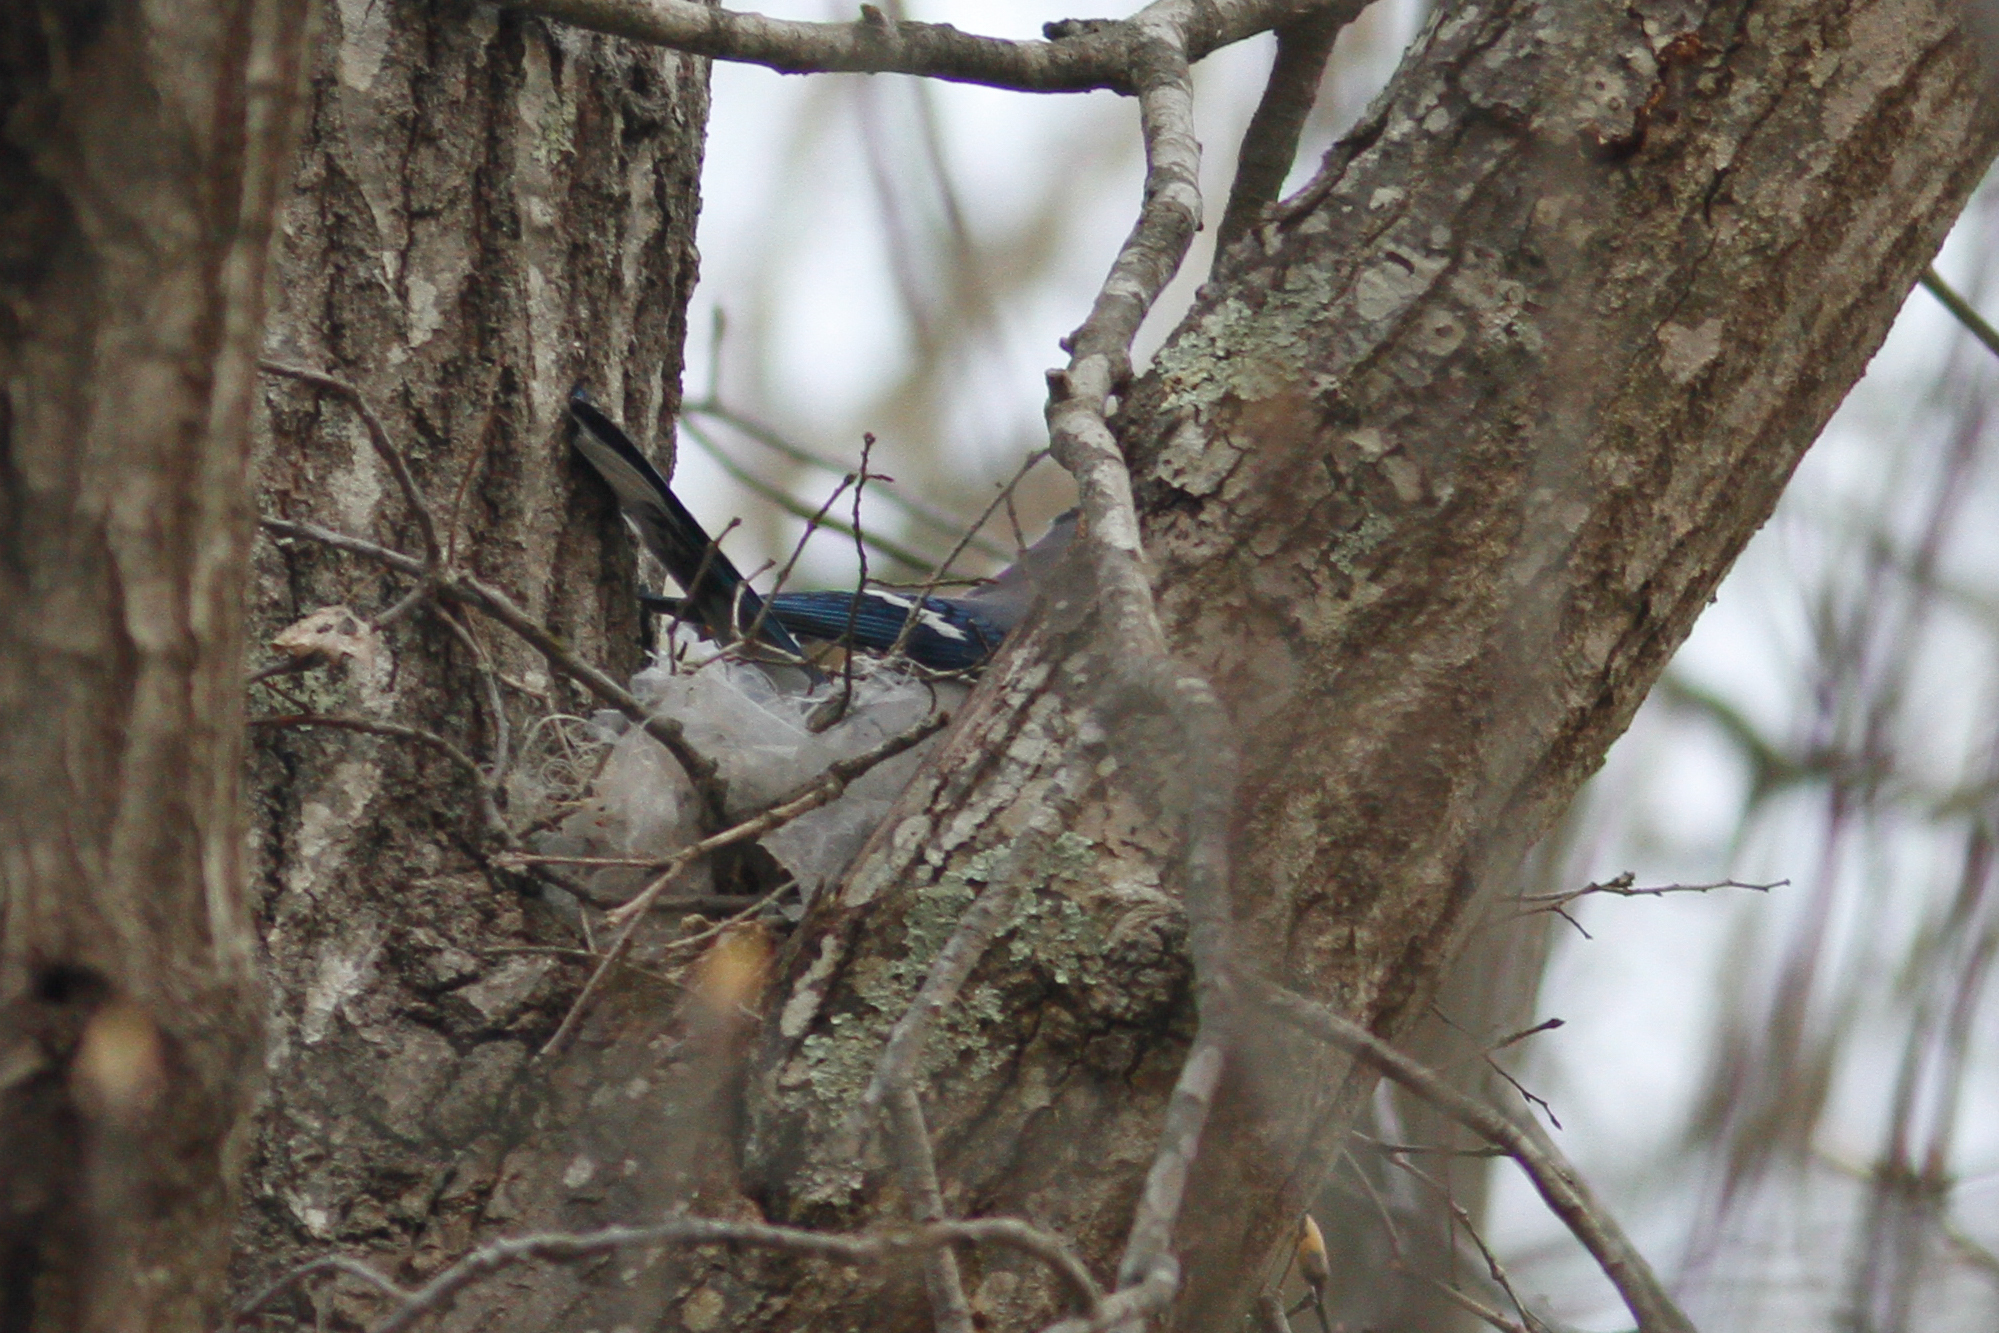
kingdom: Animalia
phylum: Chordata
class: Aves
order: Passeriformes
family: Corvidae
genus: Cyanocitta
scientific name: Cyanocitta cristata
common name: Blue jay
